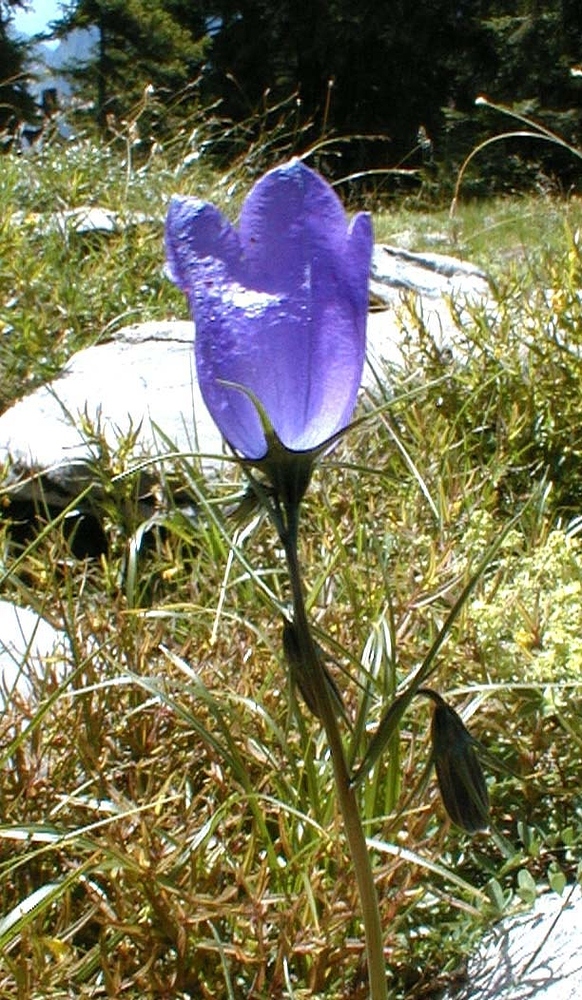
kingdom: Plantae
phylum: Tracheophyta
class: Magnoliopsida
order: Asterales
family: Campanulaceae
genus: Campanula
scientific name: Campanula scheuchzeri
